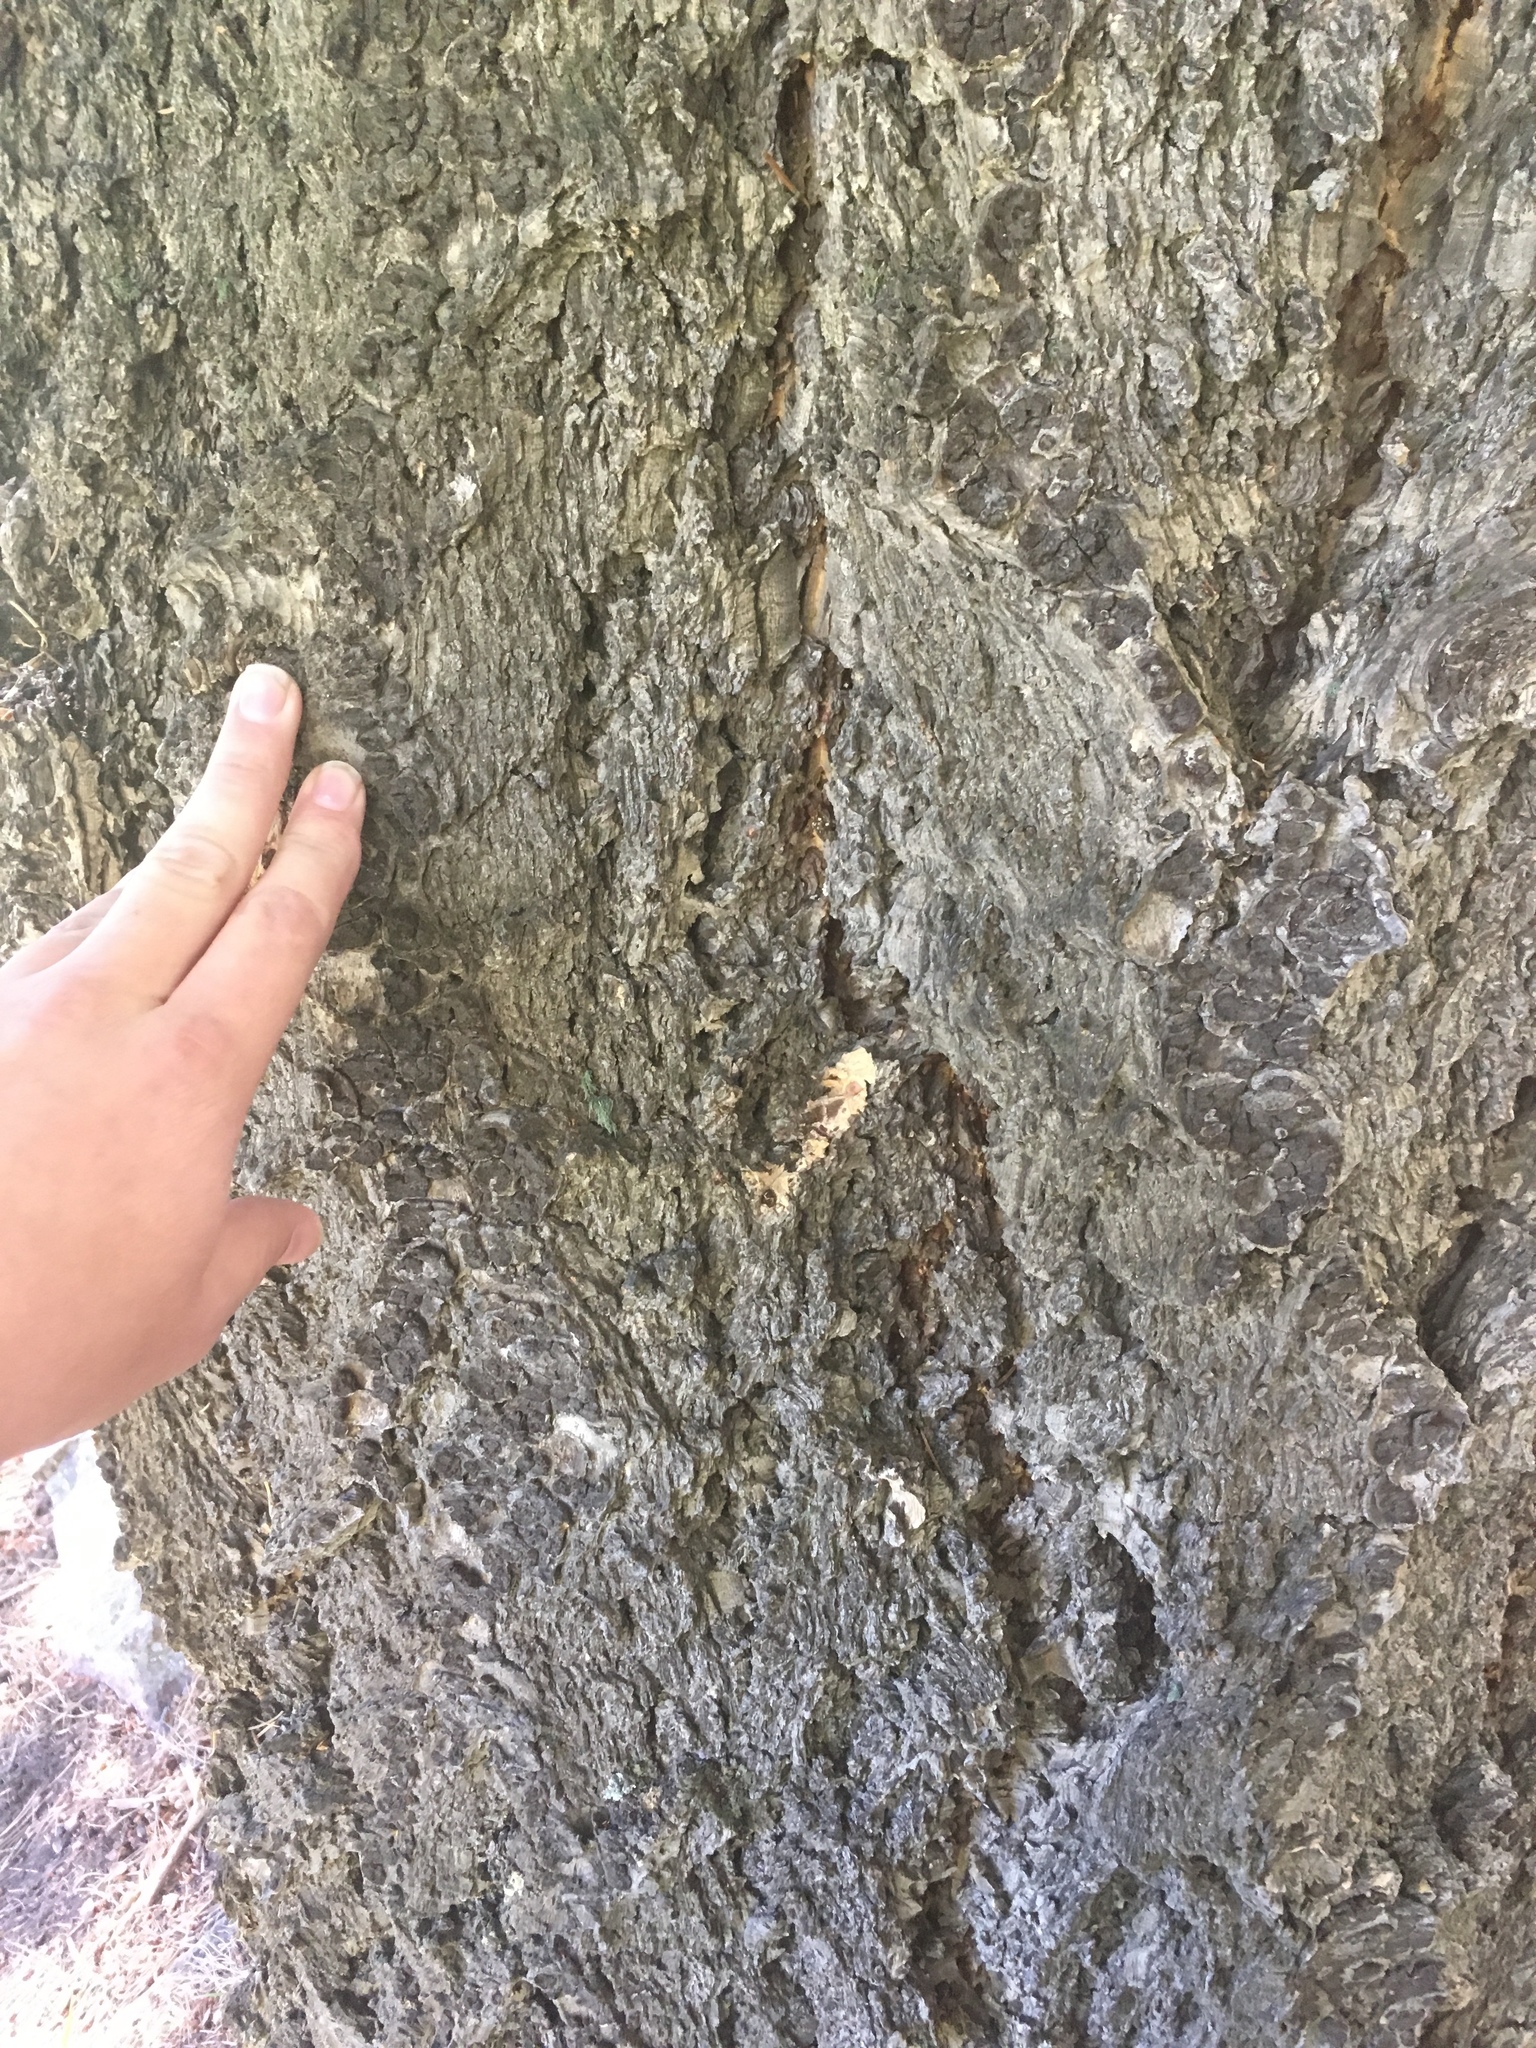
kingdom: Plantae
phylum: Tracheophyta
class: Pinopsida
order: Pinales
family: Pinaceae
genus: Pseudotsuga
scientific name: Pseudotsuga menziesii
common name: Douglas fir
